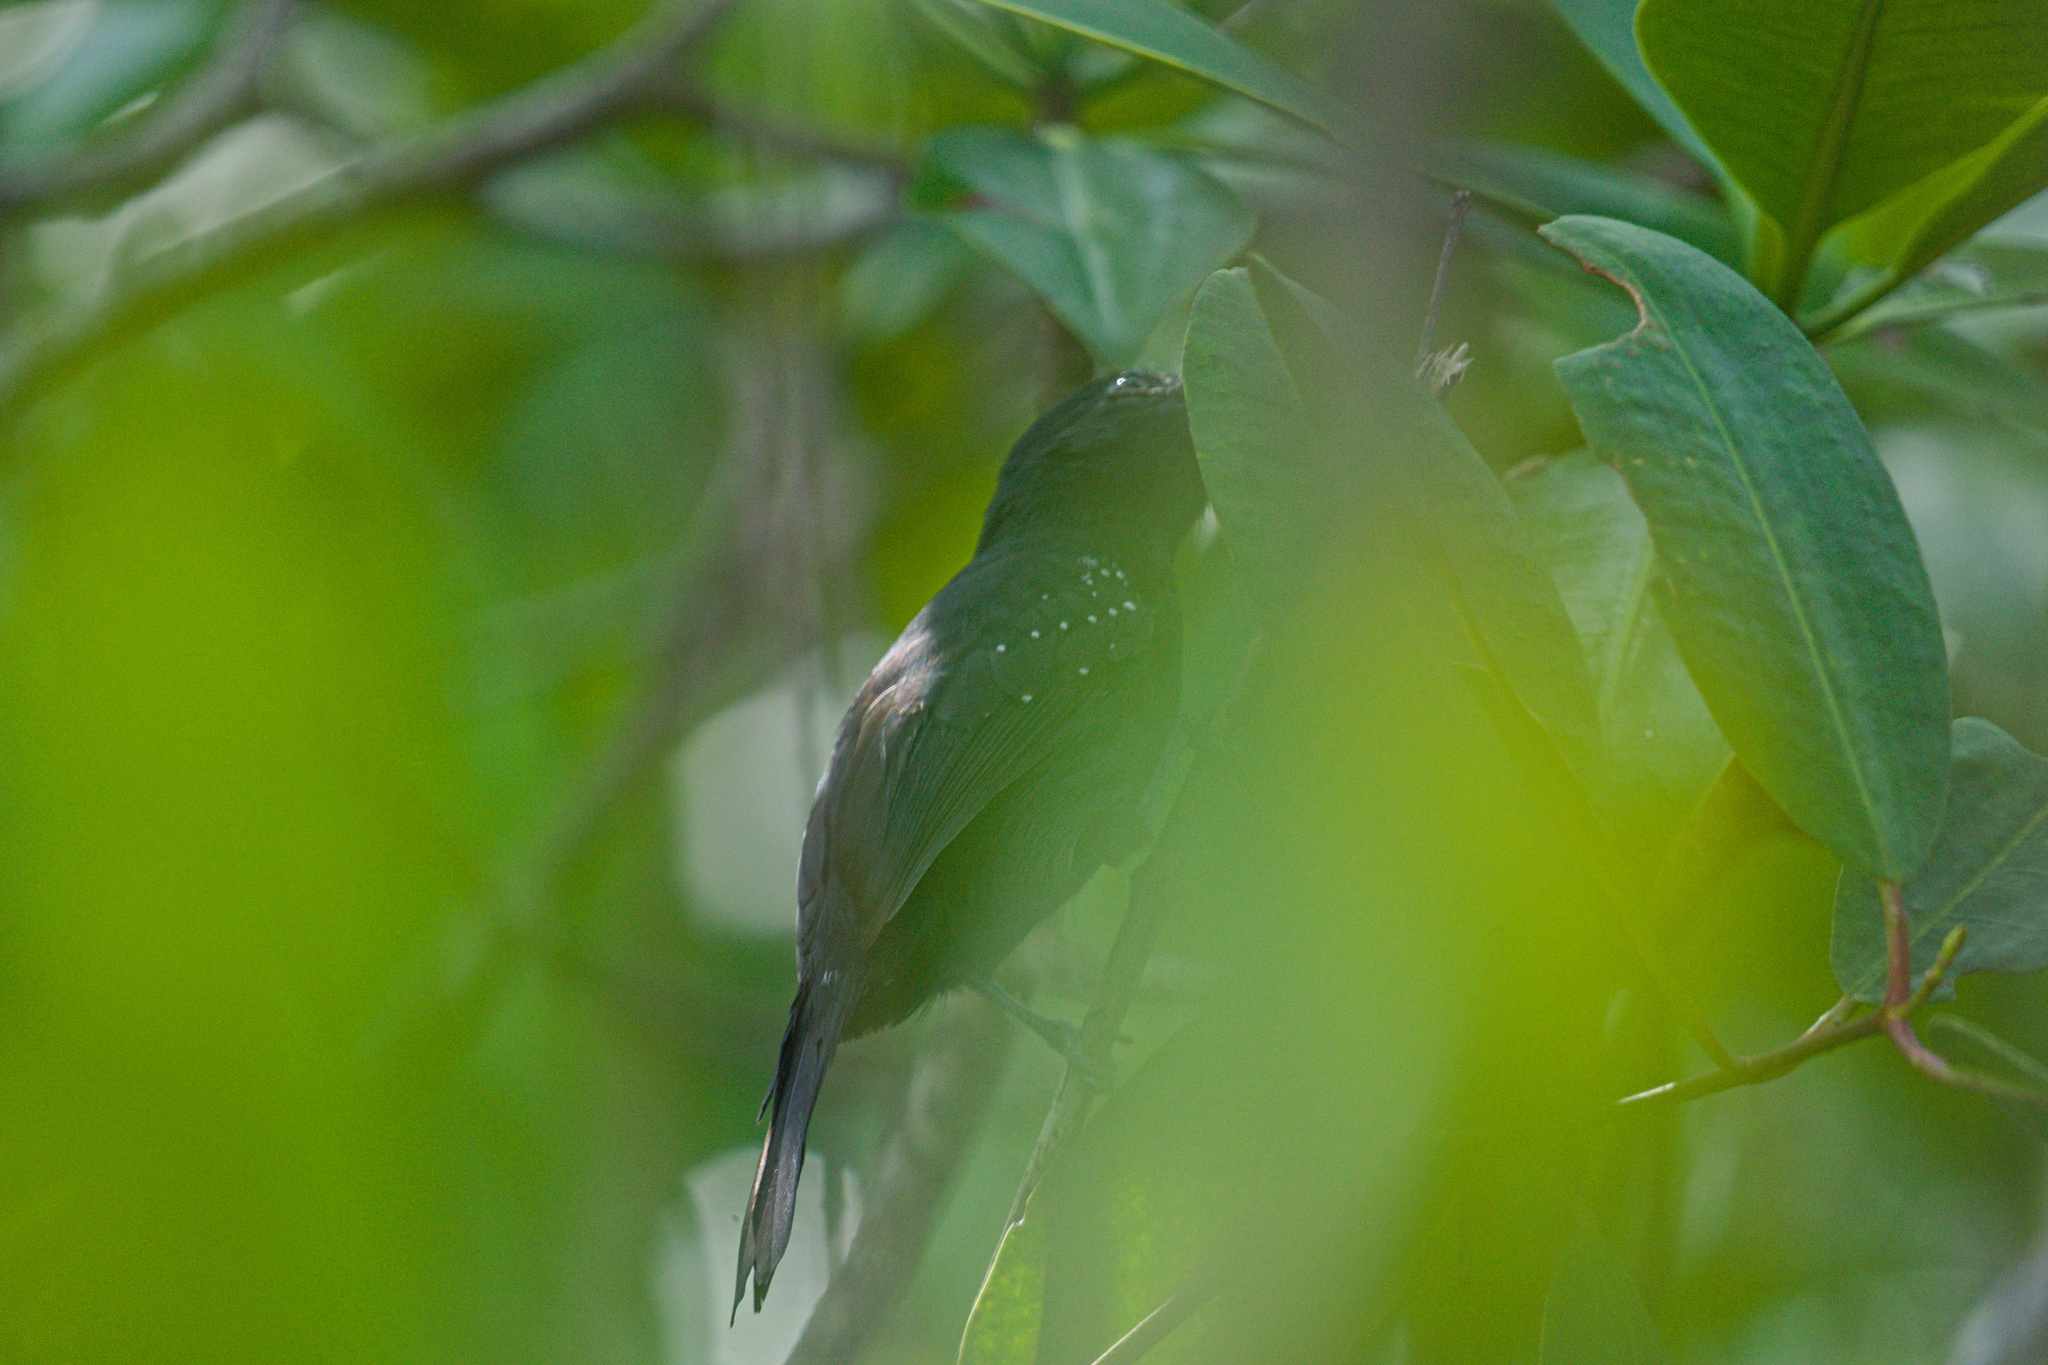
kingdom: Animalia
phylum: Chordata
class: Aves
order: Passeriformes
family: Thamnophilidae
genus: Thamnophilus
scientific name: Thamnophilus bridgesi
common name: Black-hooded antshrike
